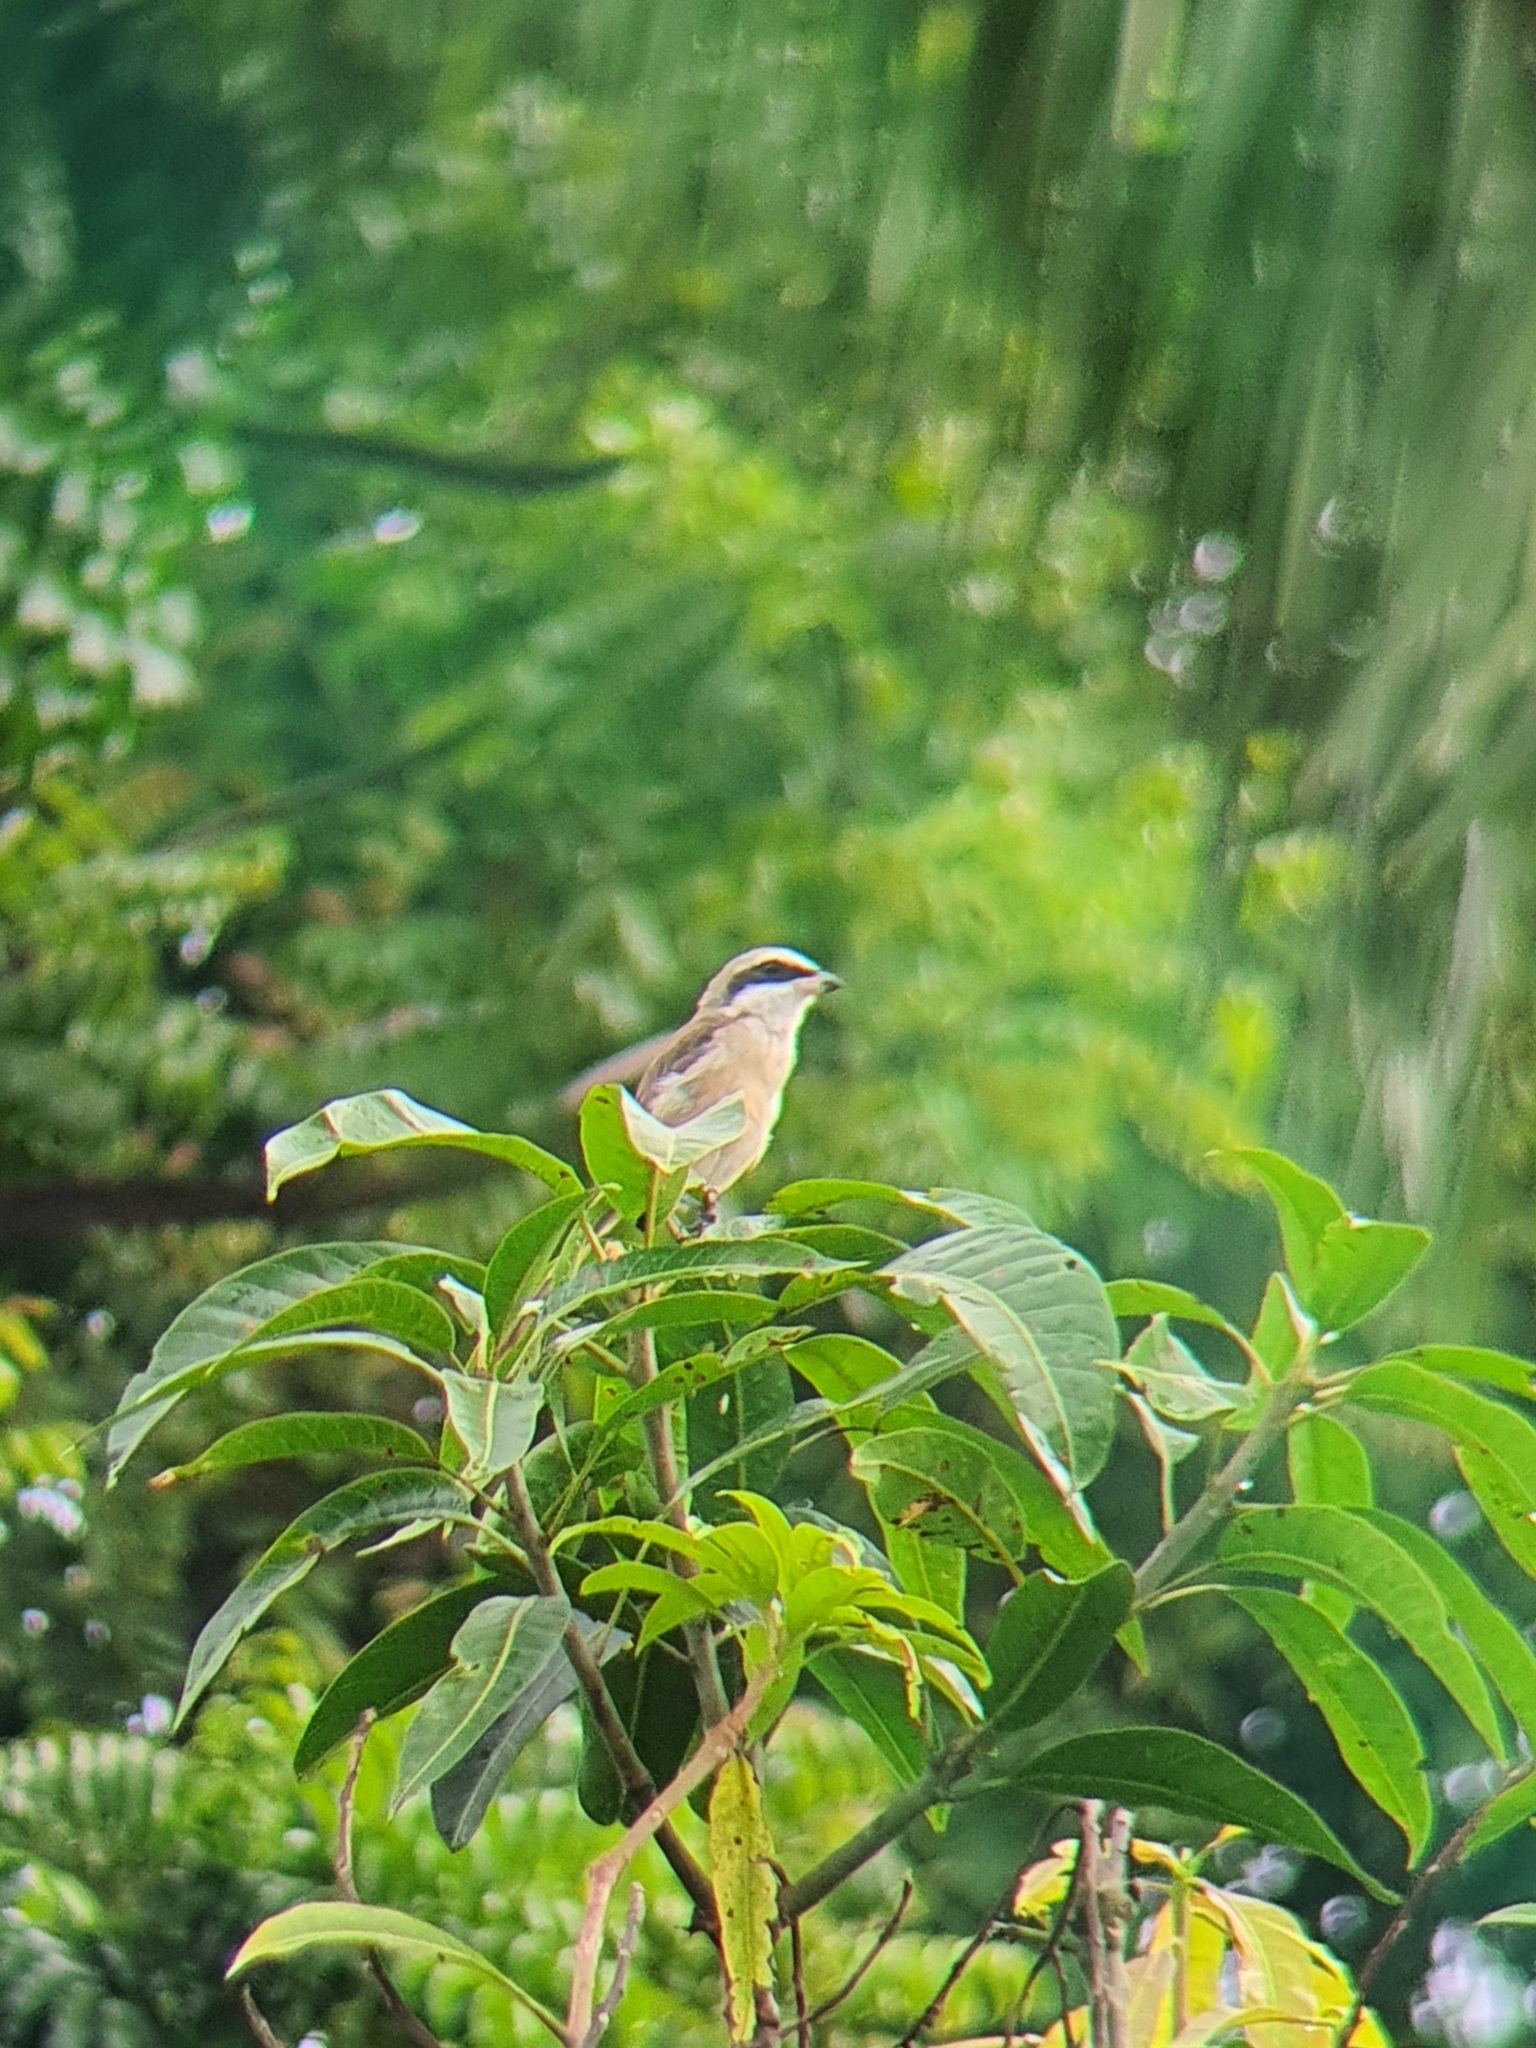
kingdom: Animalia
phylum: Chordata
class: Aves
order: Passeriformes
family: Laniidae
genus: Lanius
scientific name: Lanius cristatus
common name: Brown shrike
